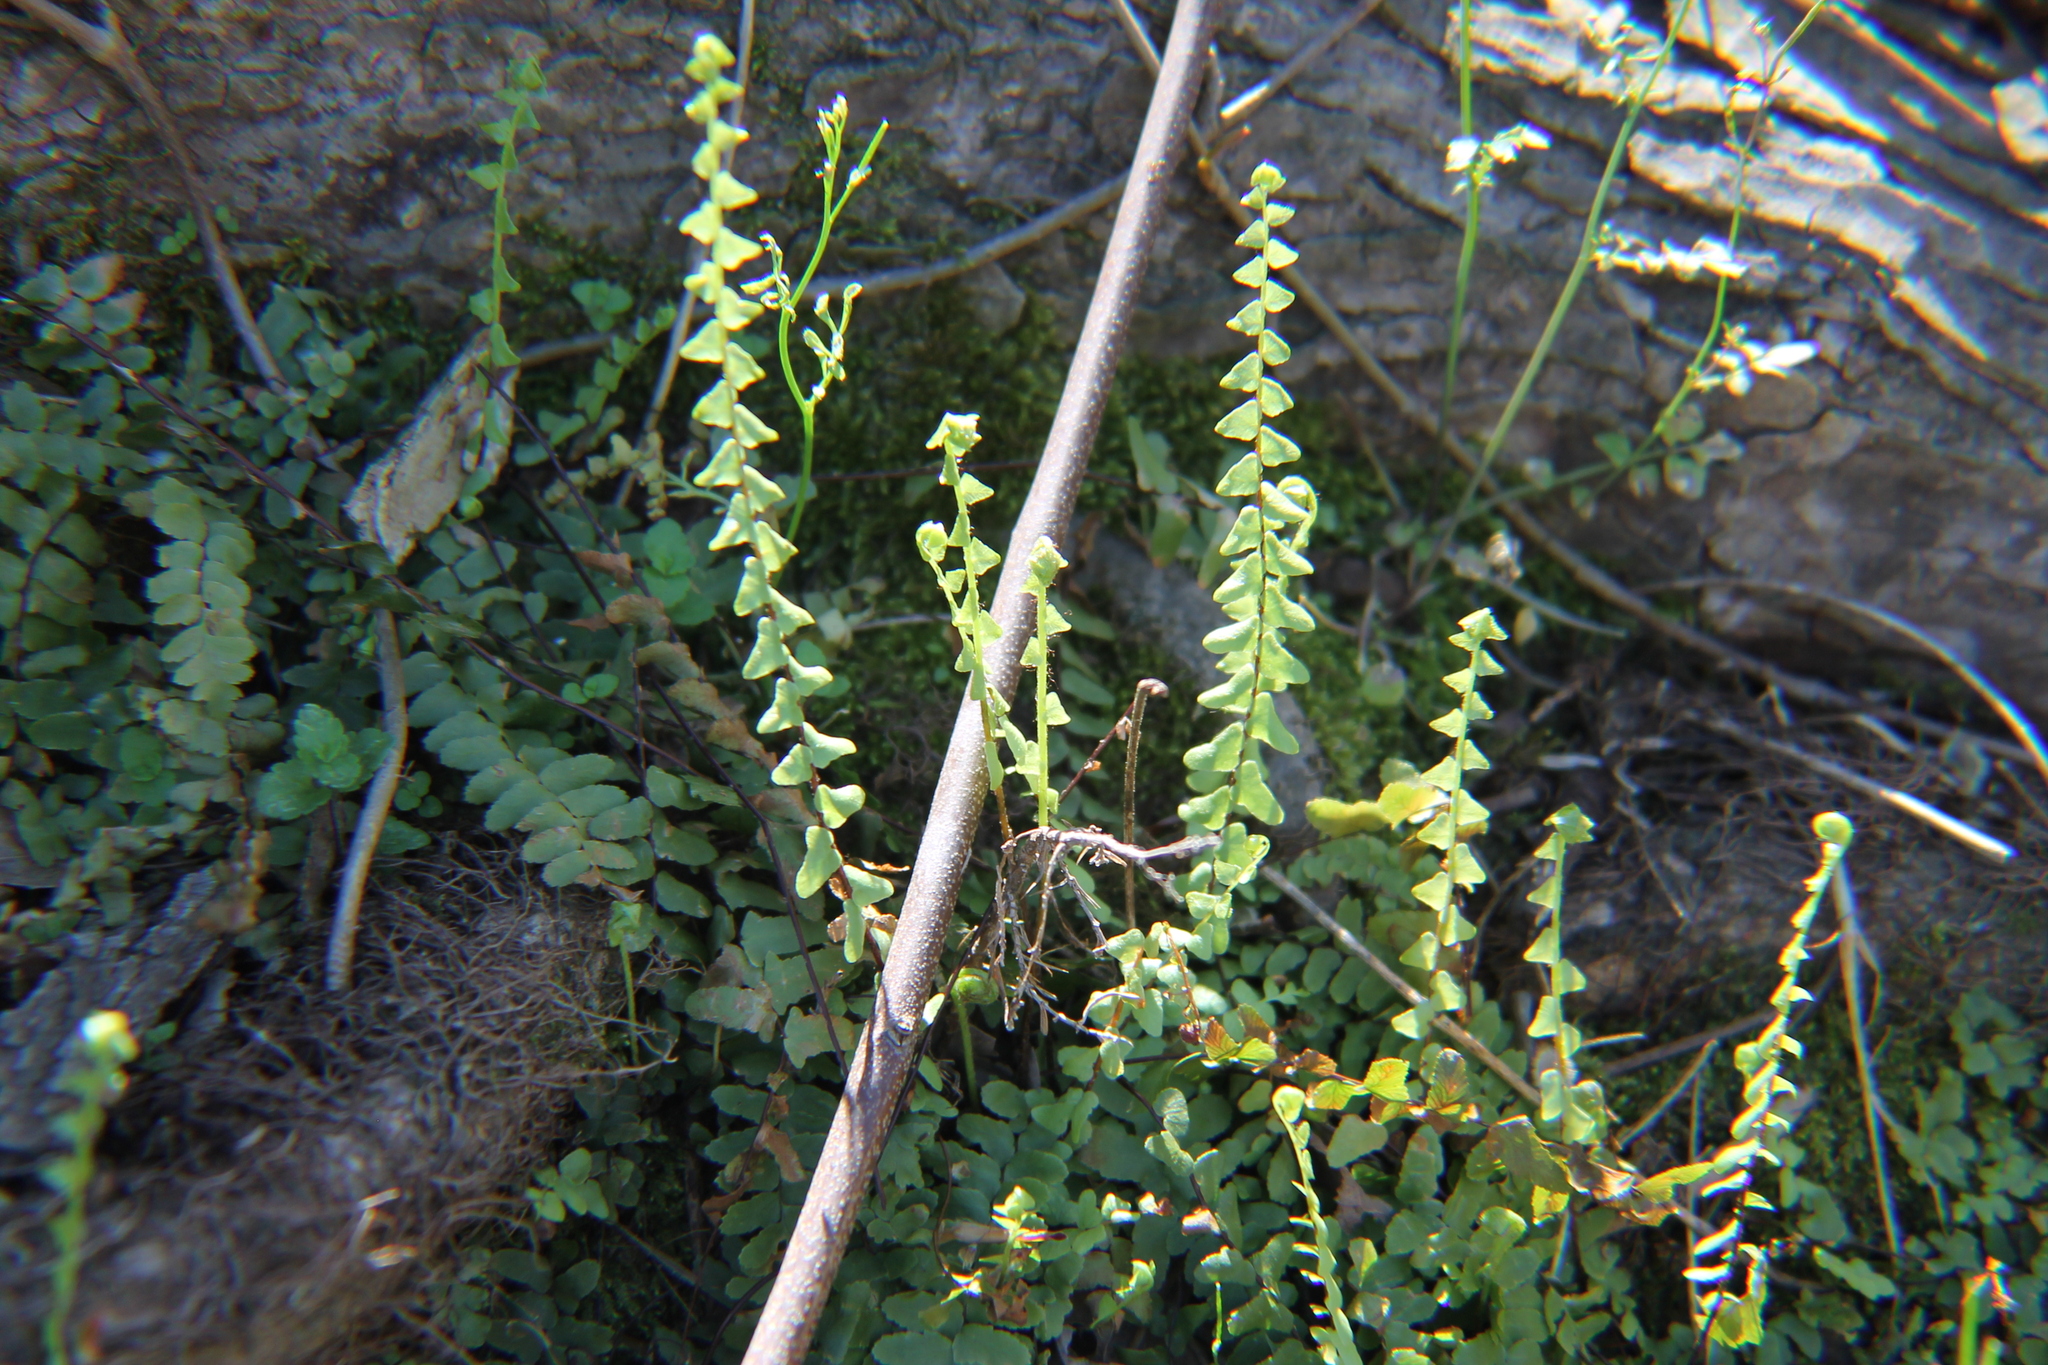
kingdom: Plantae
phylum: Tracheophyta
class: Polypodiopsida
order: Polypodiales
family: Aspleniaceae
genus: Asplenium
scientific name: Asplenium platyneuron
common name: Ebony spleenwort
